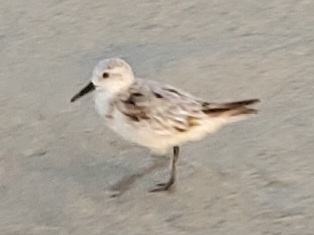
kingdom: Animalia
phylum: Chordata
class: Aves
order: Charadriiformes
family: Scolopacidae
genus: Calidris
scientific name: Calidris alba
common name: Sanderling
